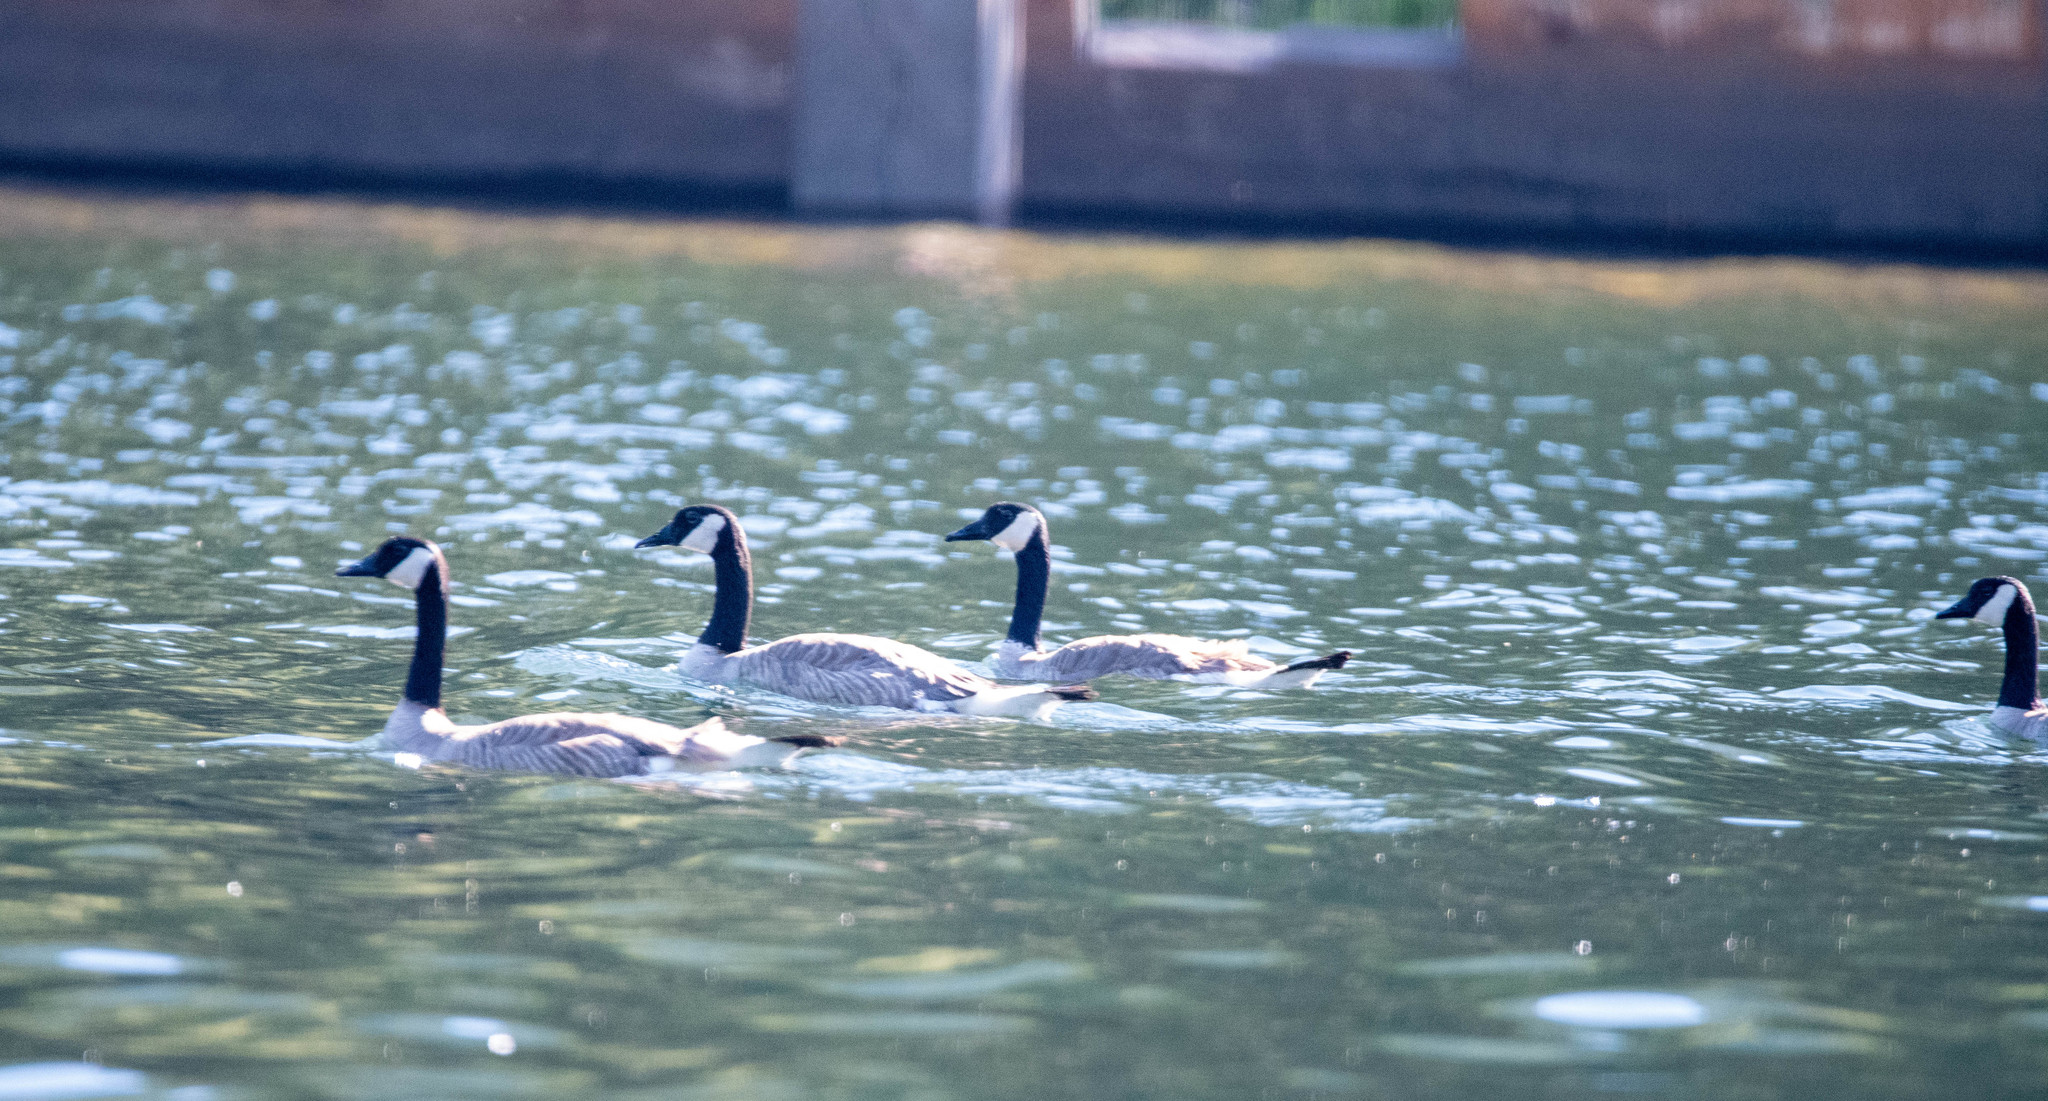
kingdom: Animalia
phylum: Chordata
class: Aves
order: Anseriformes
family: Anatidae
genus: Branta
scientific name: Branta canadensis
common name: Canada goose
